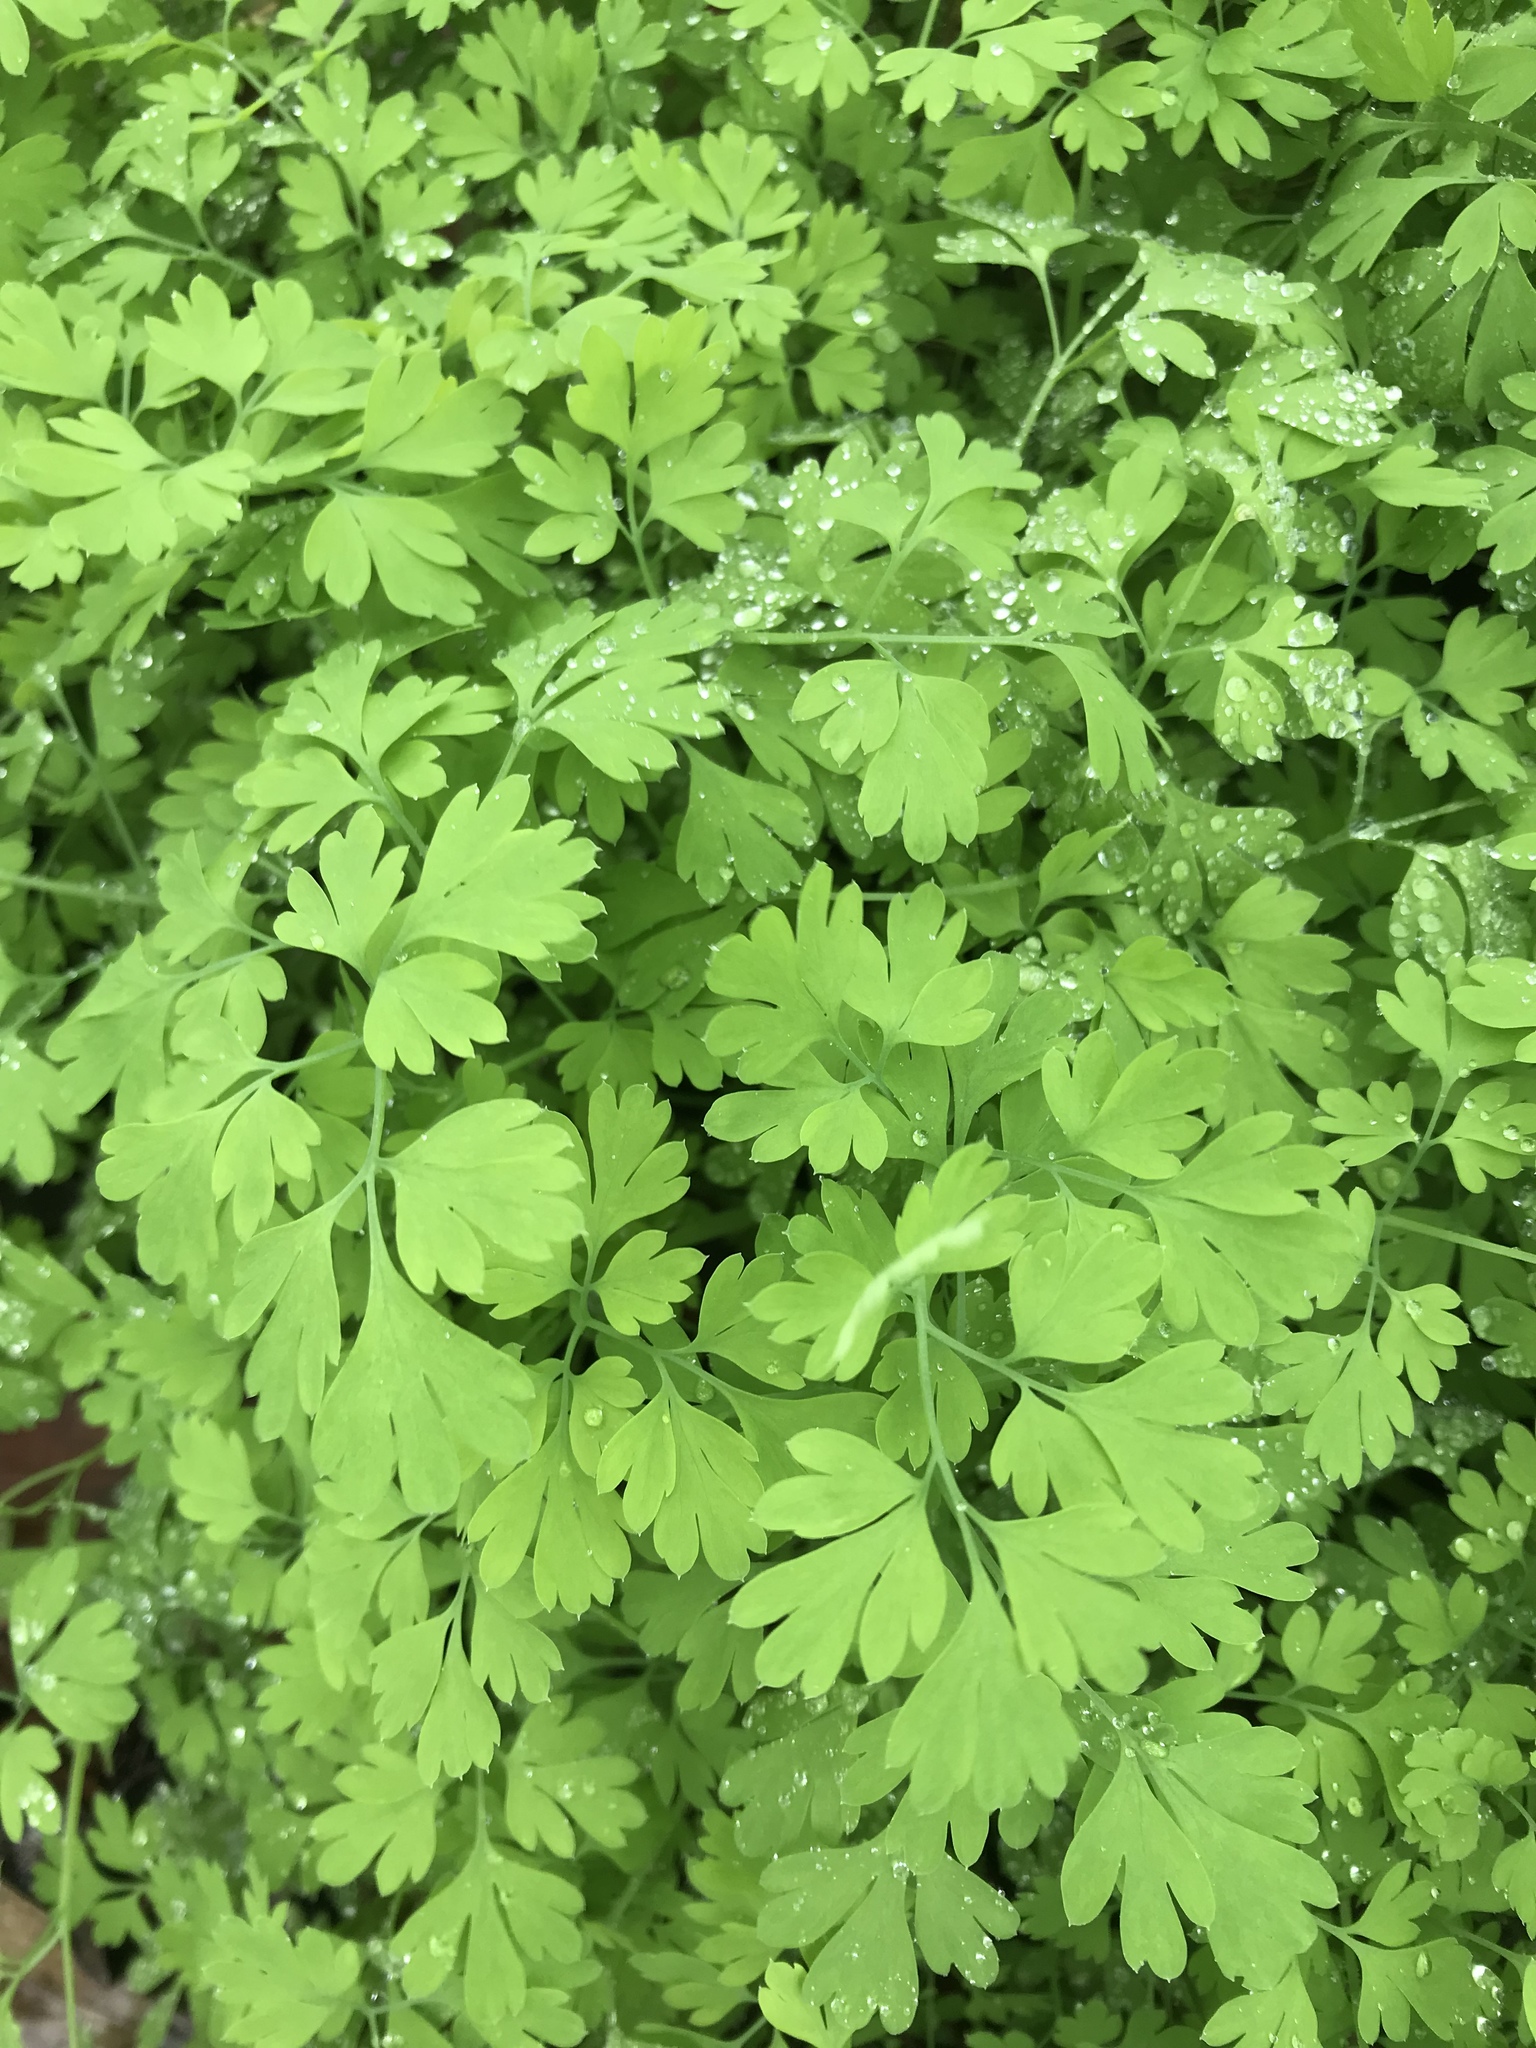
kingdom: Plantae
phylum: Tracheophyta
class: Magnoliopsida
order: Ranunculales
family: Papaveraceae
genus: Fumaria
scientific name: Fumaria
